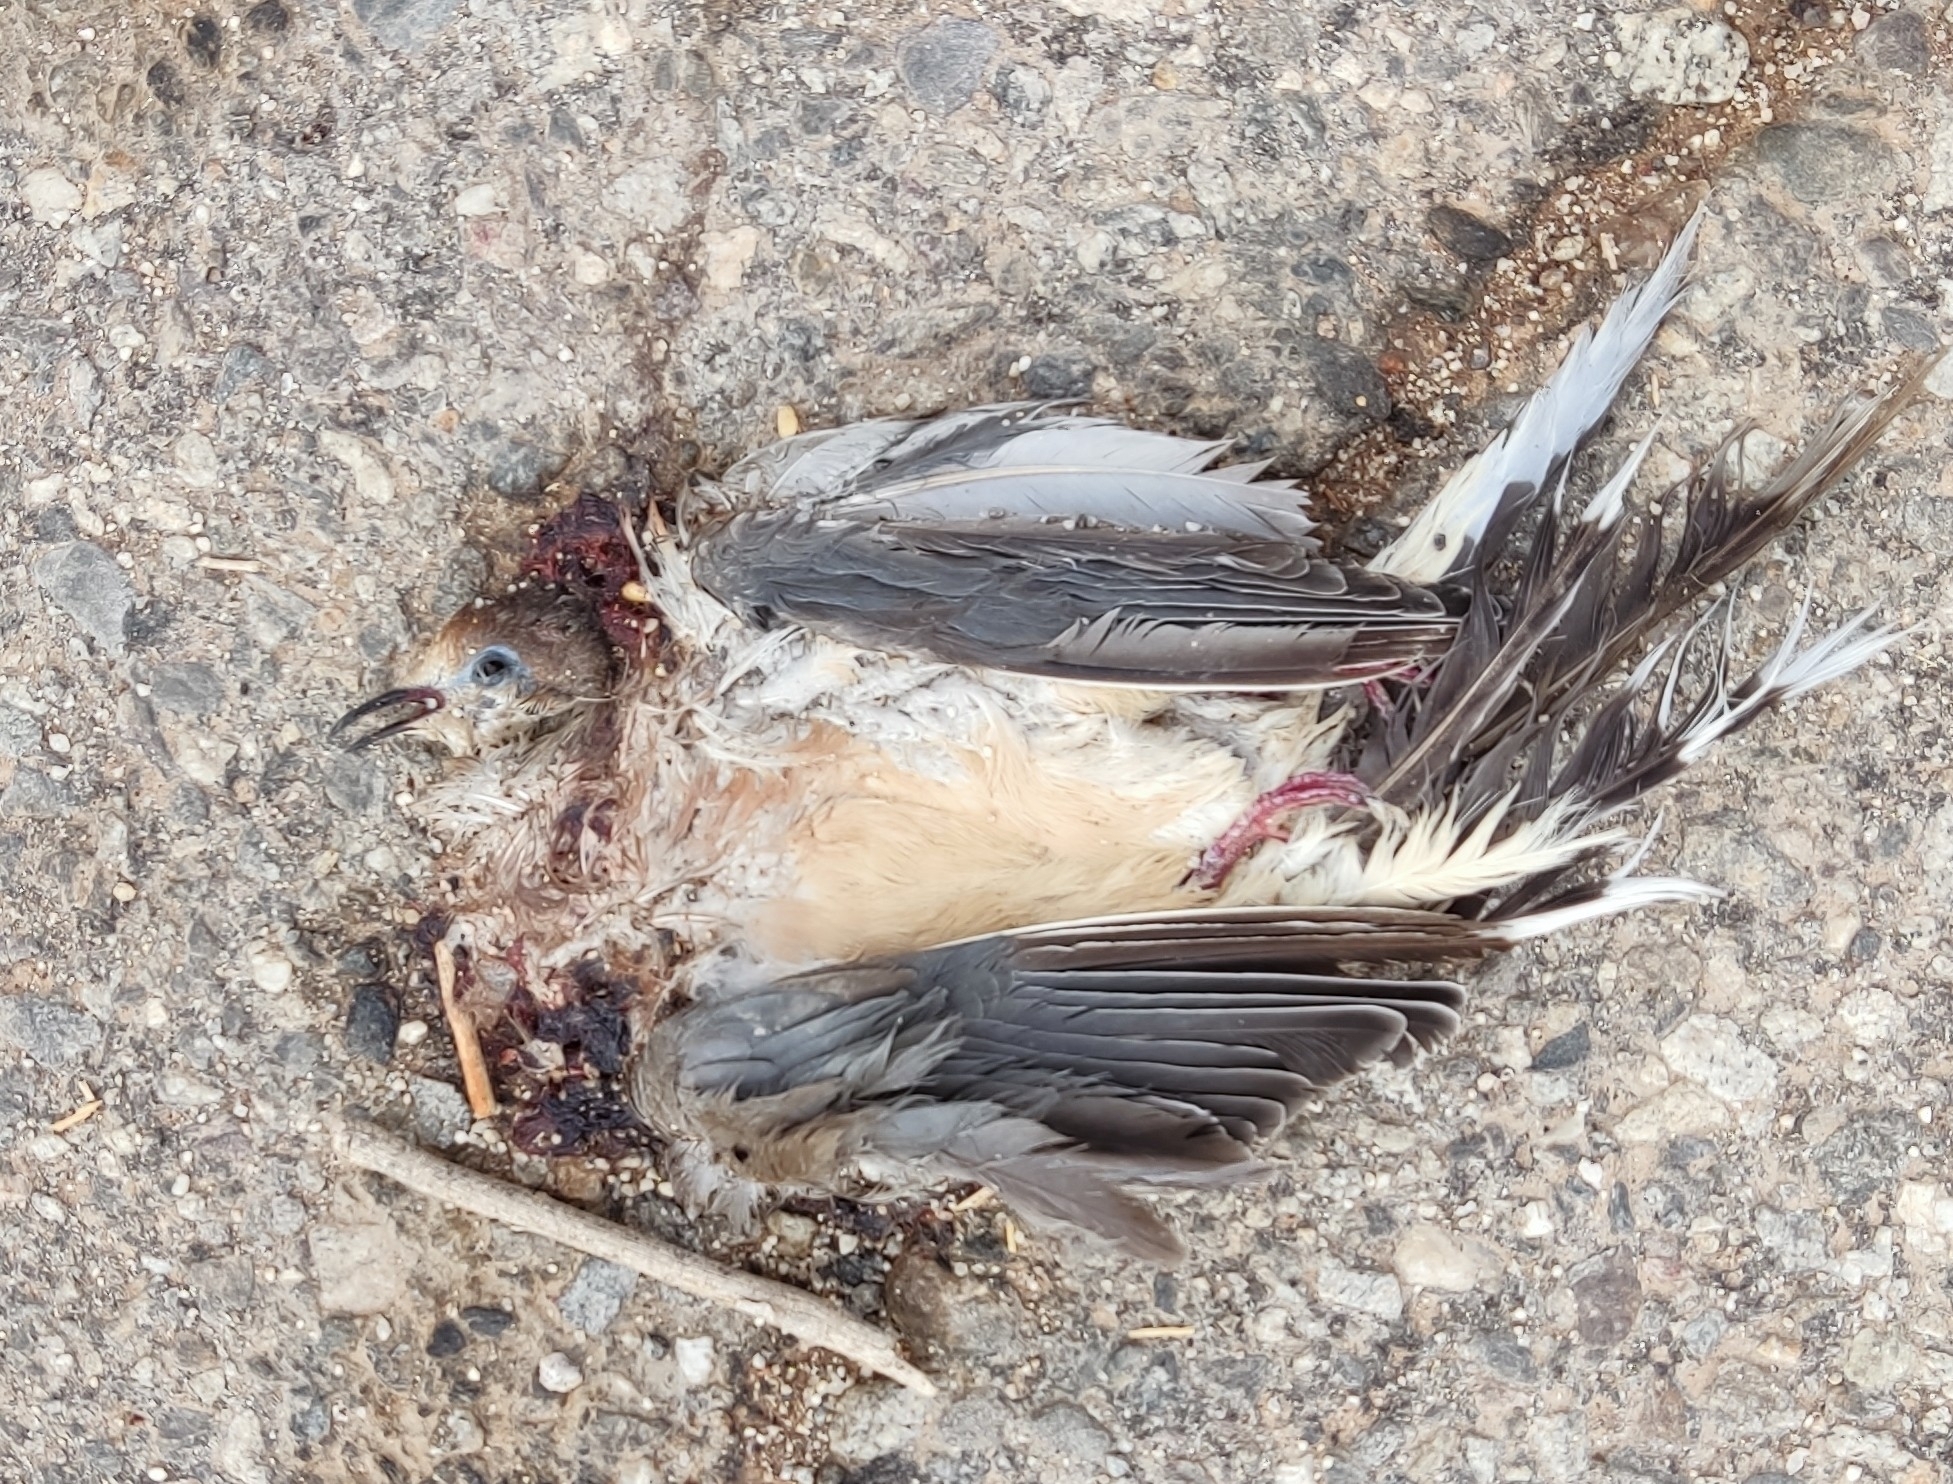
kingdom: Animalia
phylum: Chordata
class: Aves
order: Columbiformes
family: Columbidae
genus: Zenaida
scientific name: Zenaida macroura
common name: Mourning dove
